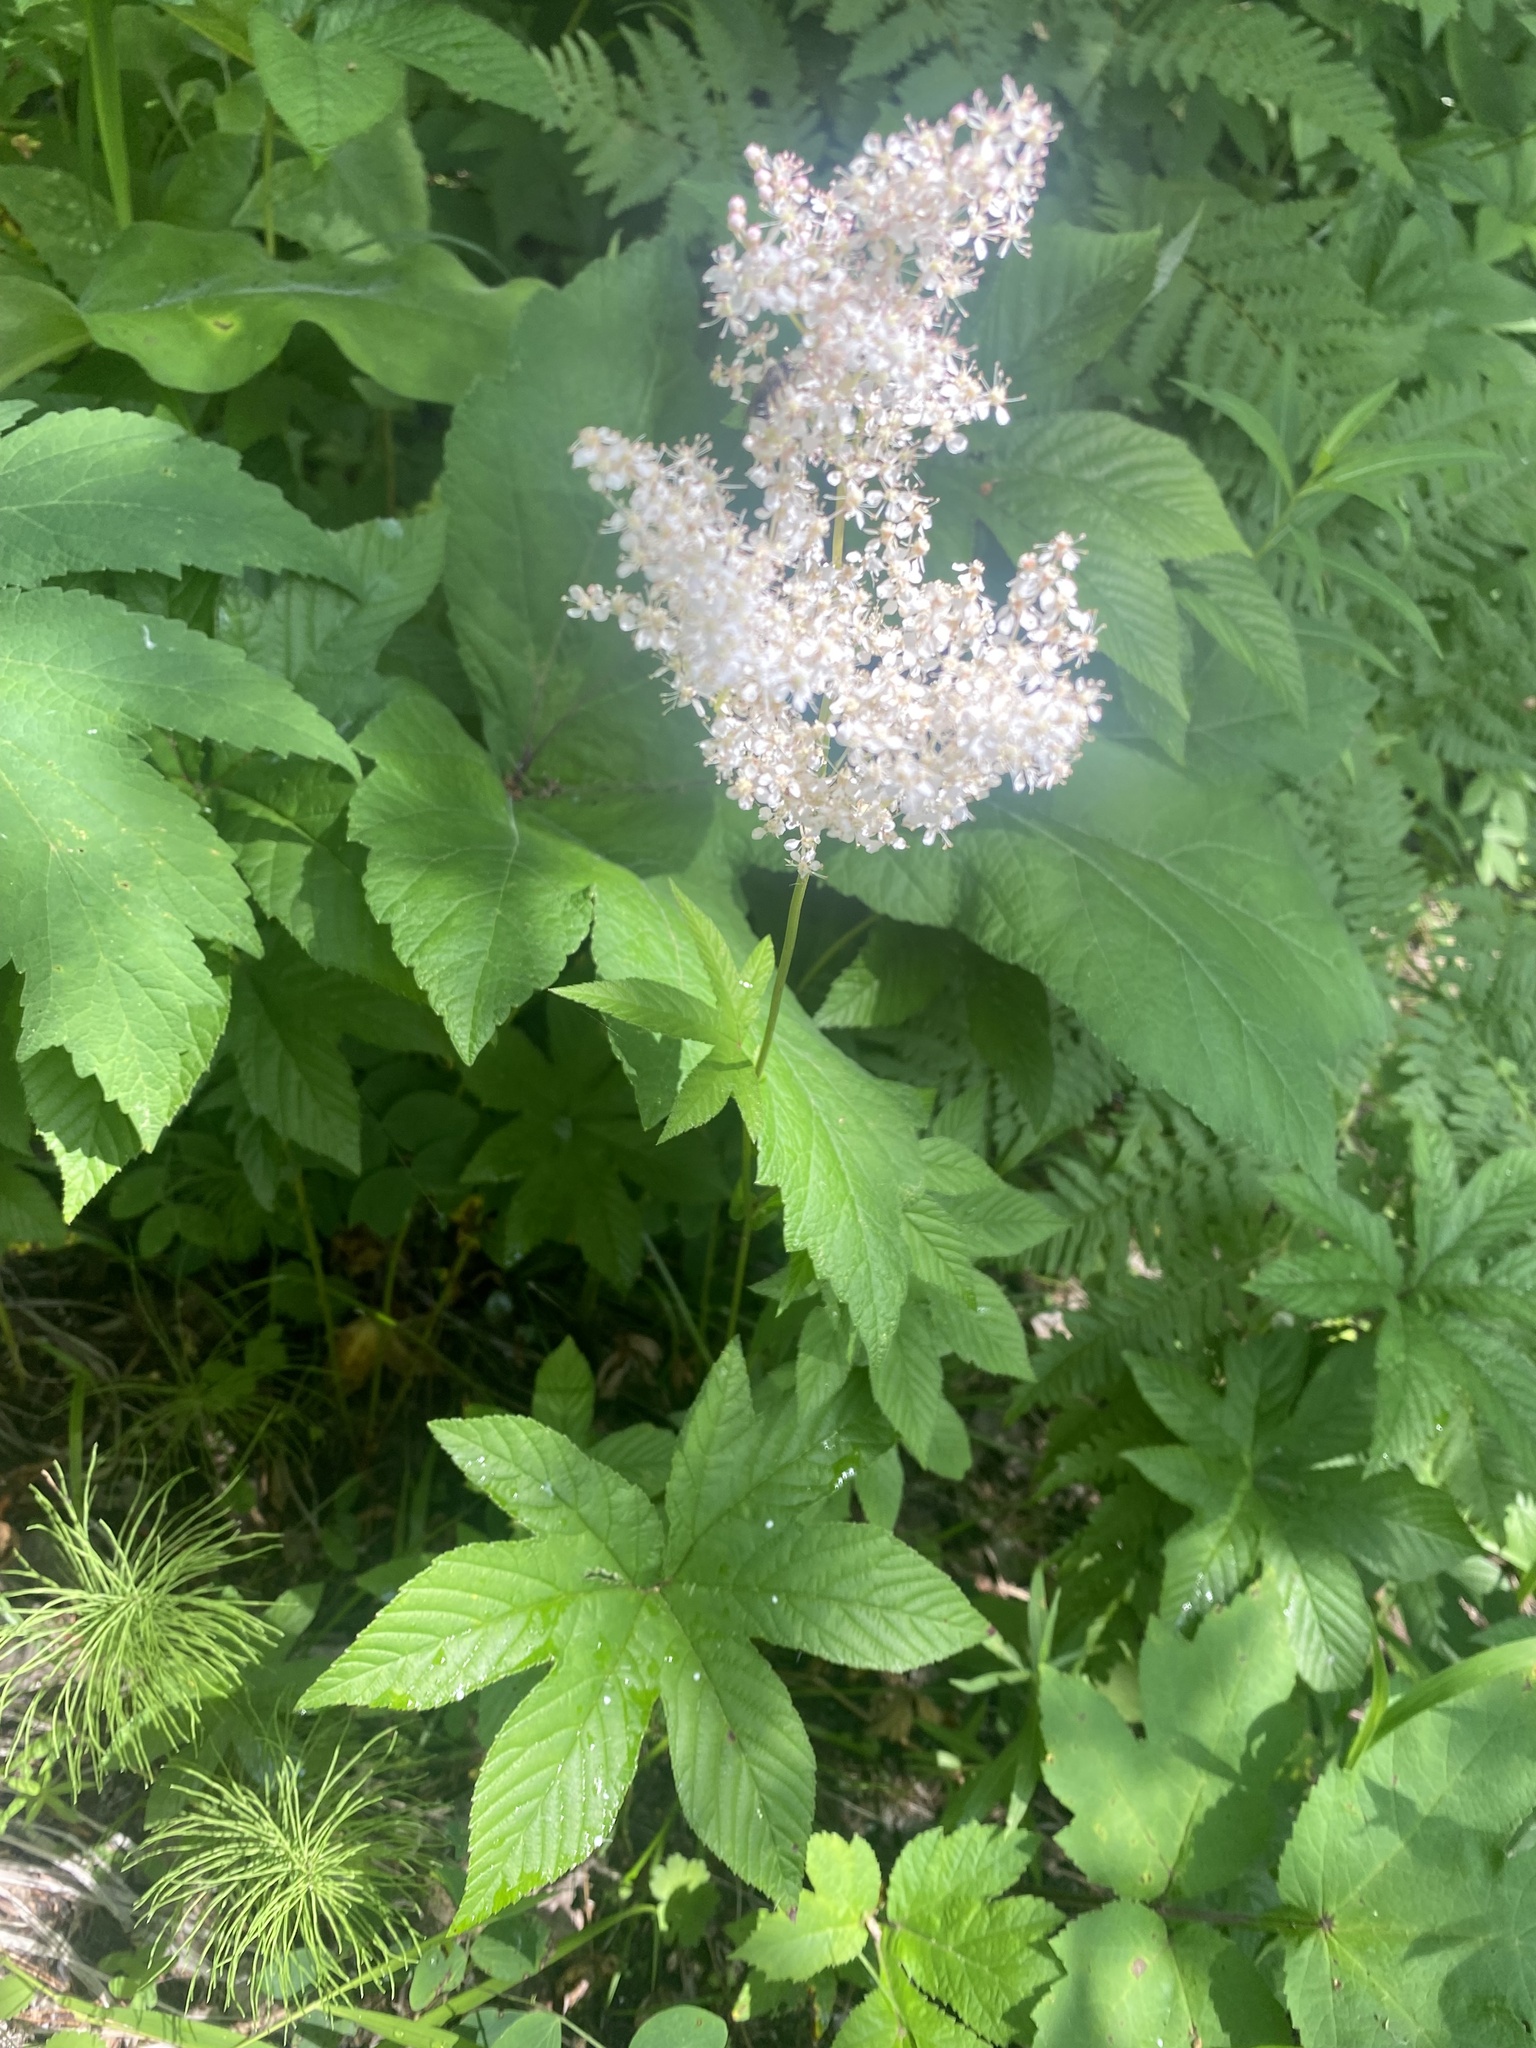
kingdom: Plantae
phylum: Tracheophyta
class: Magnoliopsida
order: Rosales
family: Rosaceae
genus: Filipendula
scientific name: Filipendula digitata
